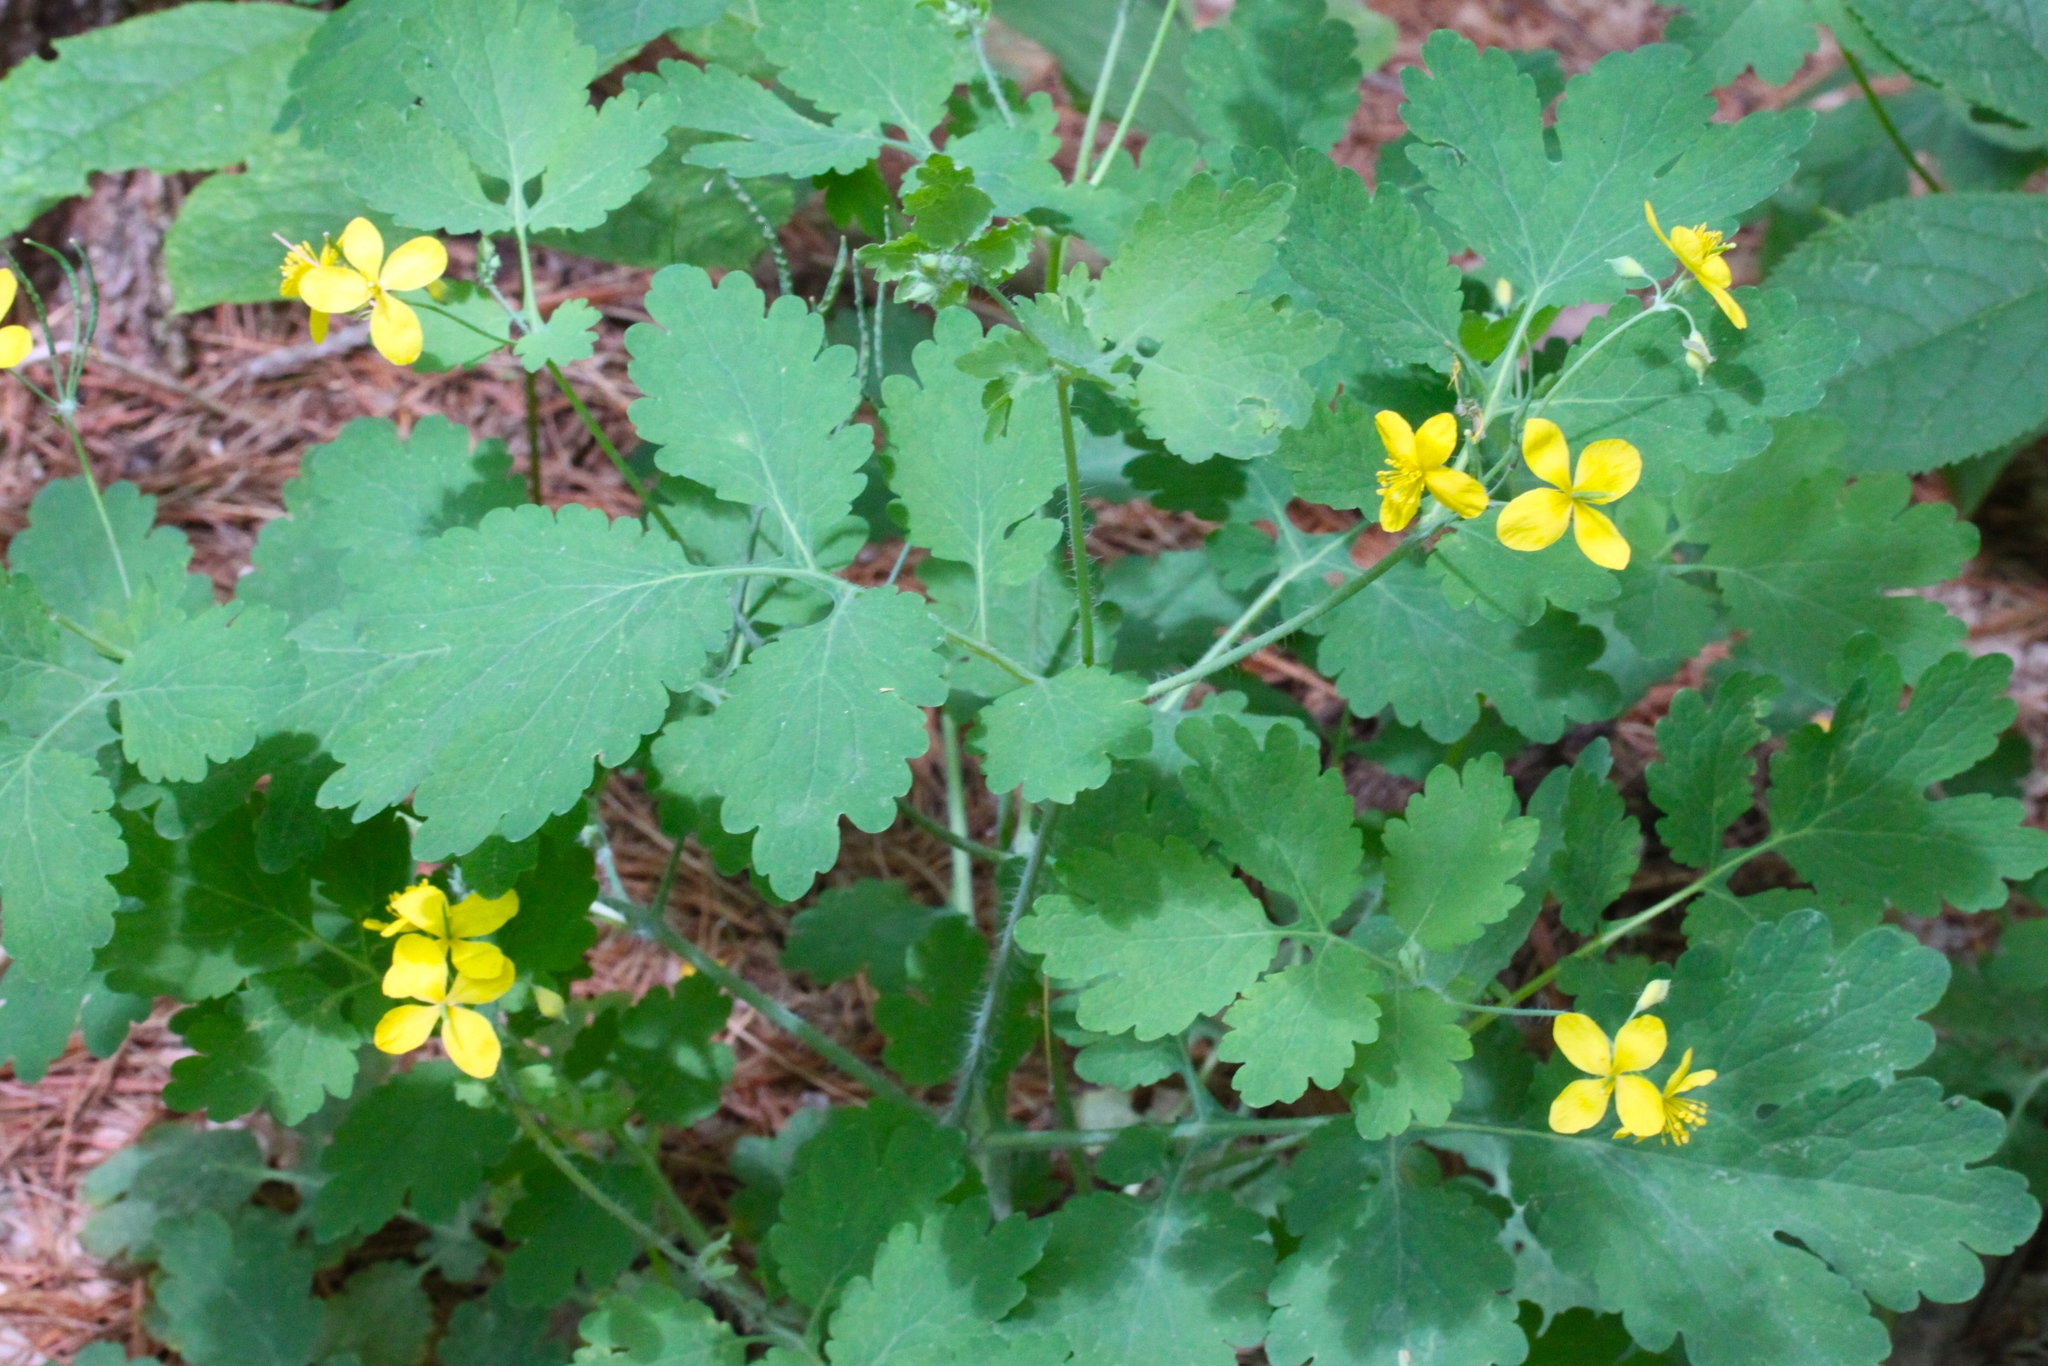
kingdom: Plantae
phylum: Tracheophyta
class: Magnoliopsida
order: Ranunculales
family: Papaveraceae
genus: Chelidonium
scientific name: Chelidonium majus
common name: Greater celandine
